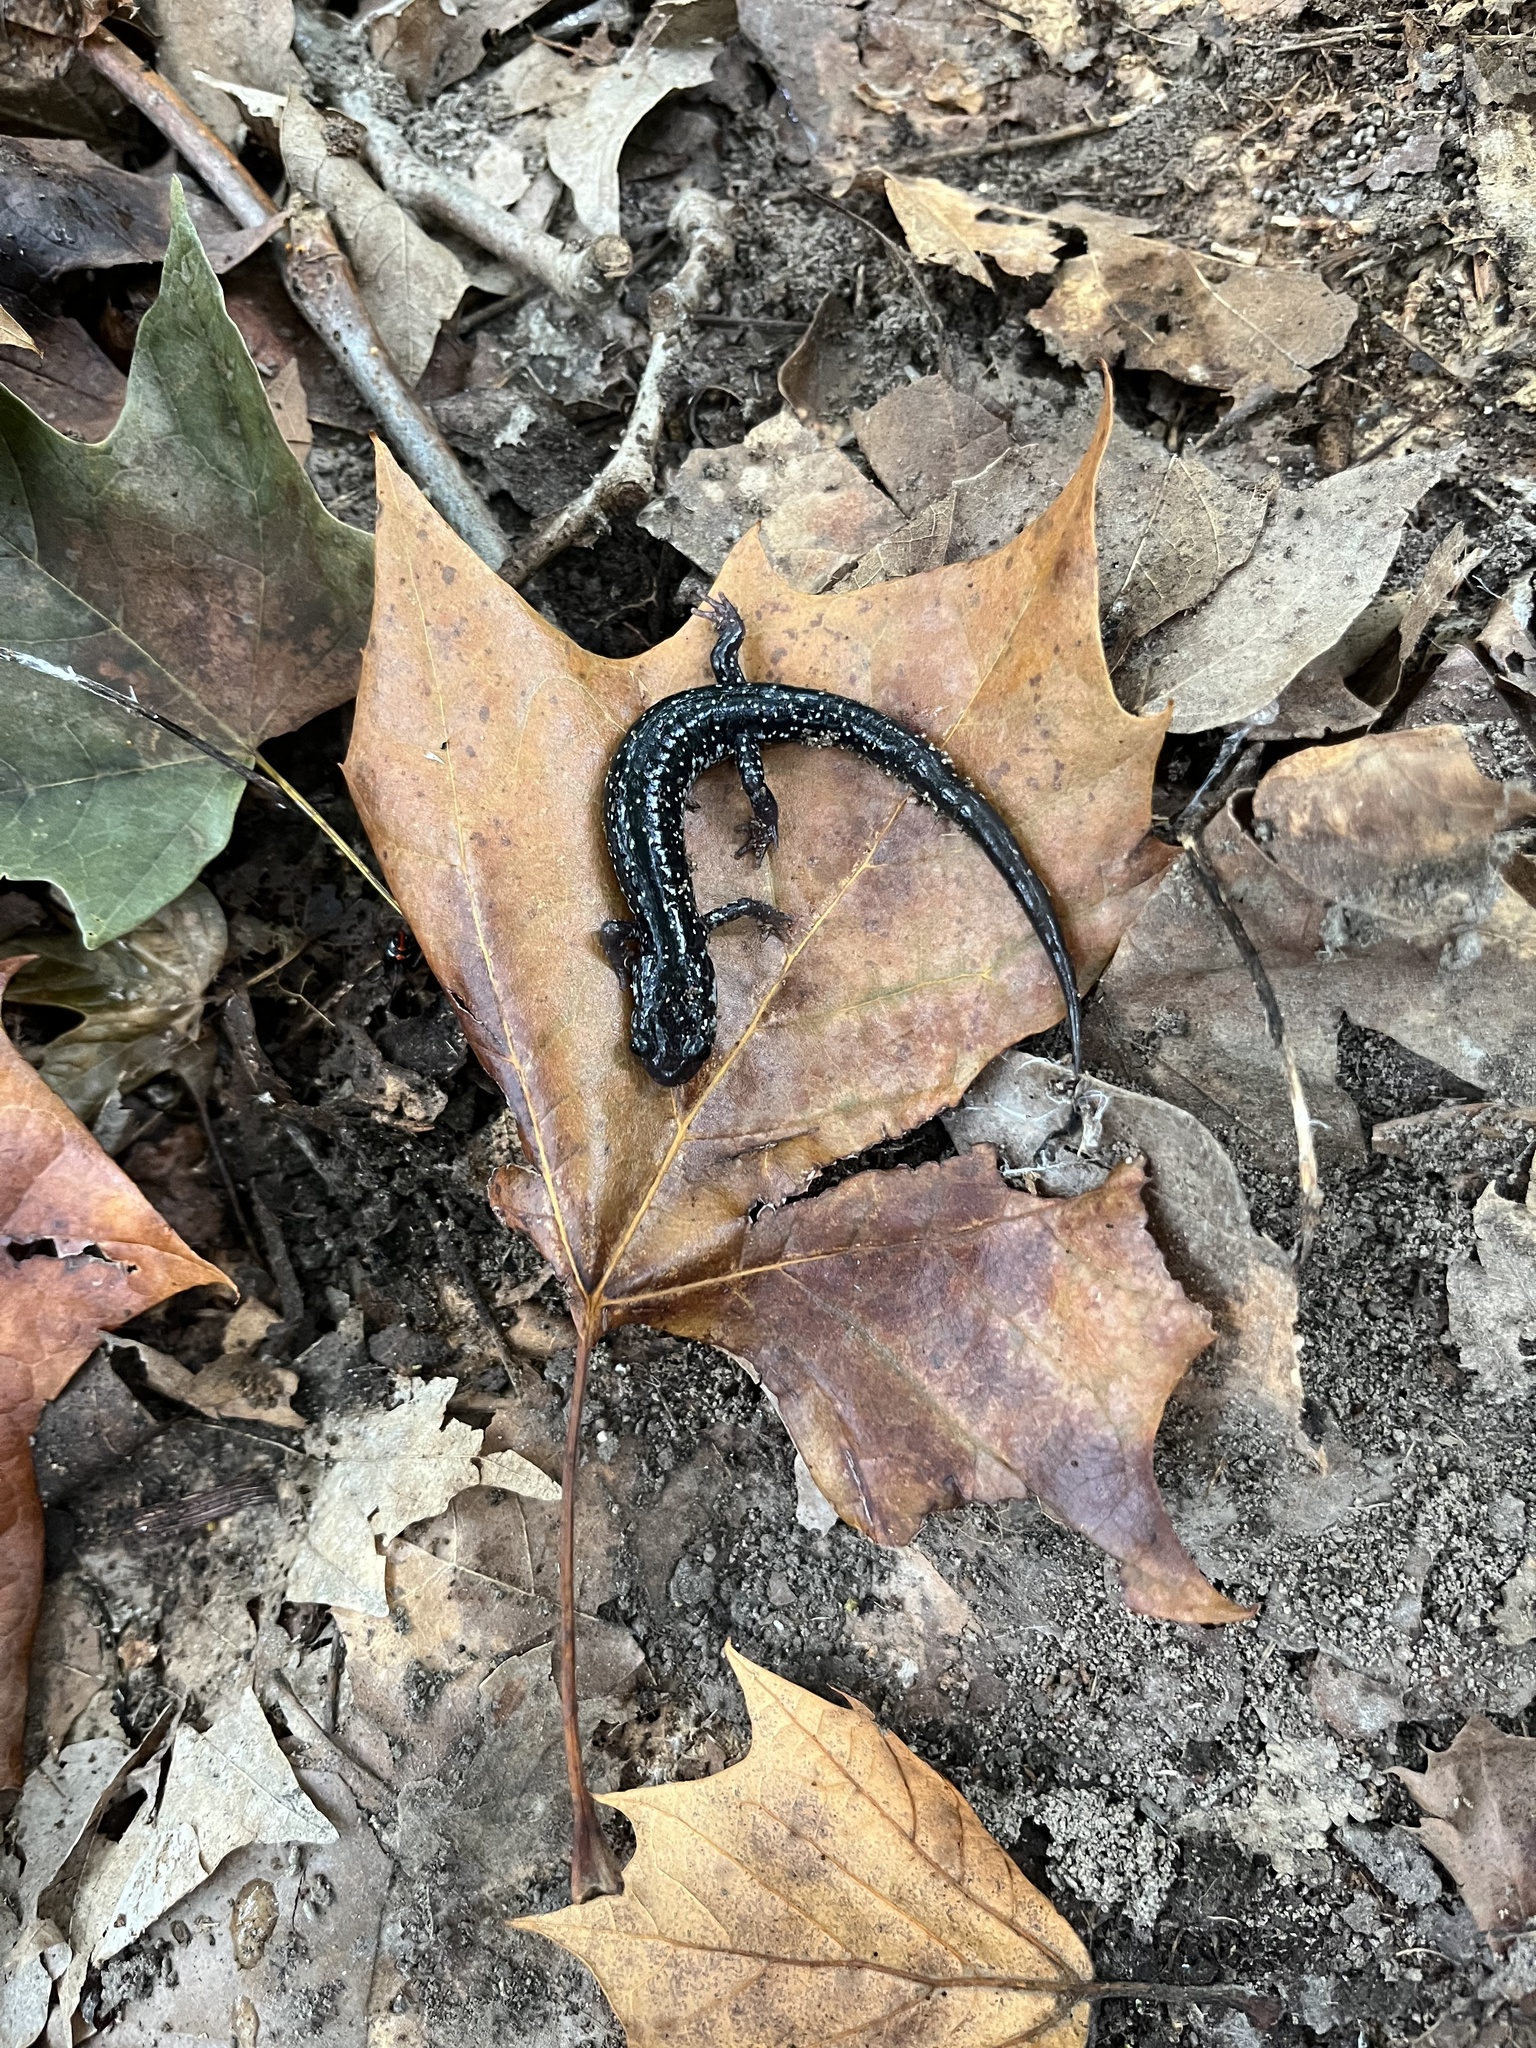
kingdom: Animalia
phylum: Chordata
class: Amphibia
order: Caudata
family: Plethodontidae
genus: Plethodon
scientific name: Plethodon glutinosus
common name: Northern slimy salamander
